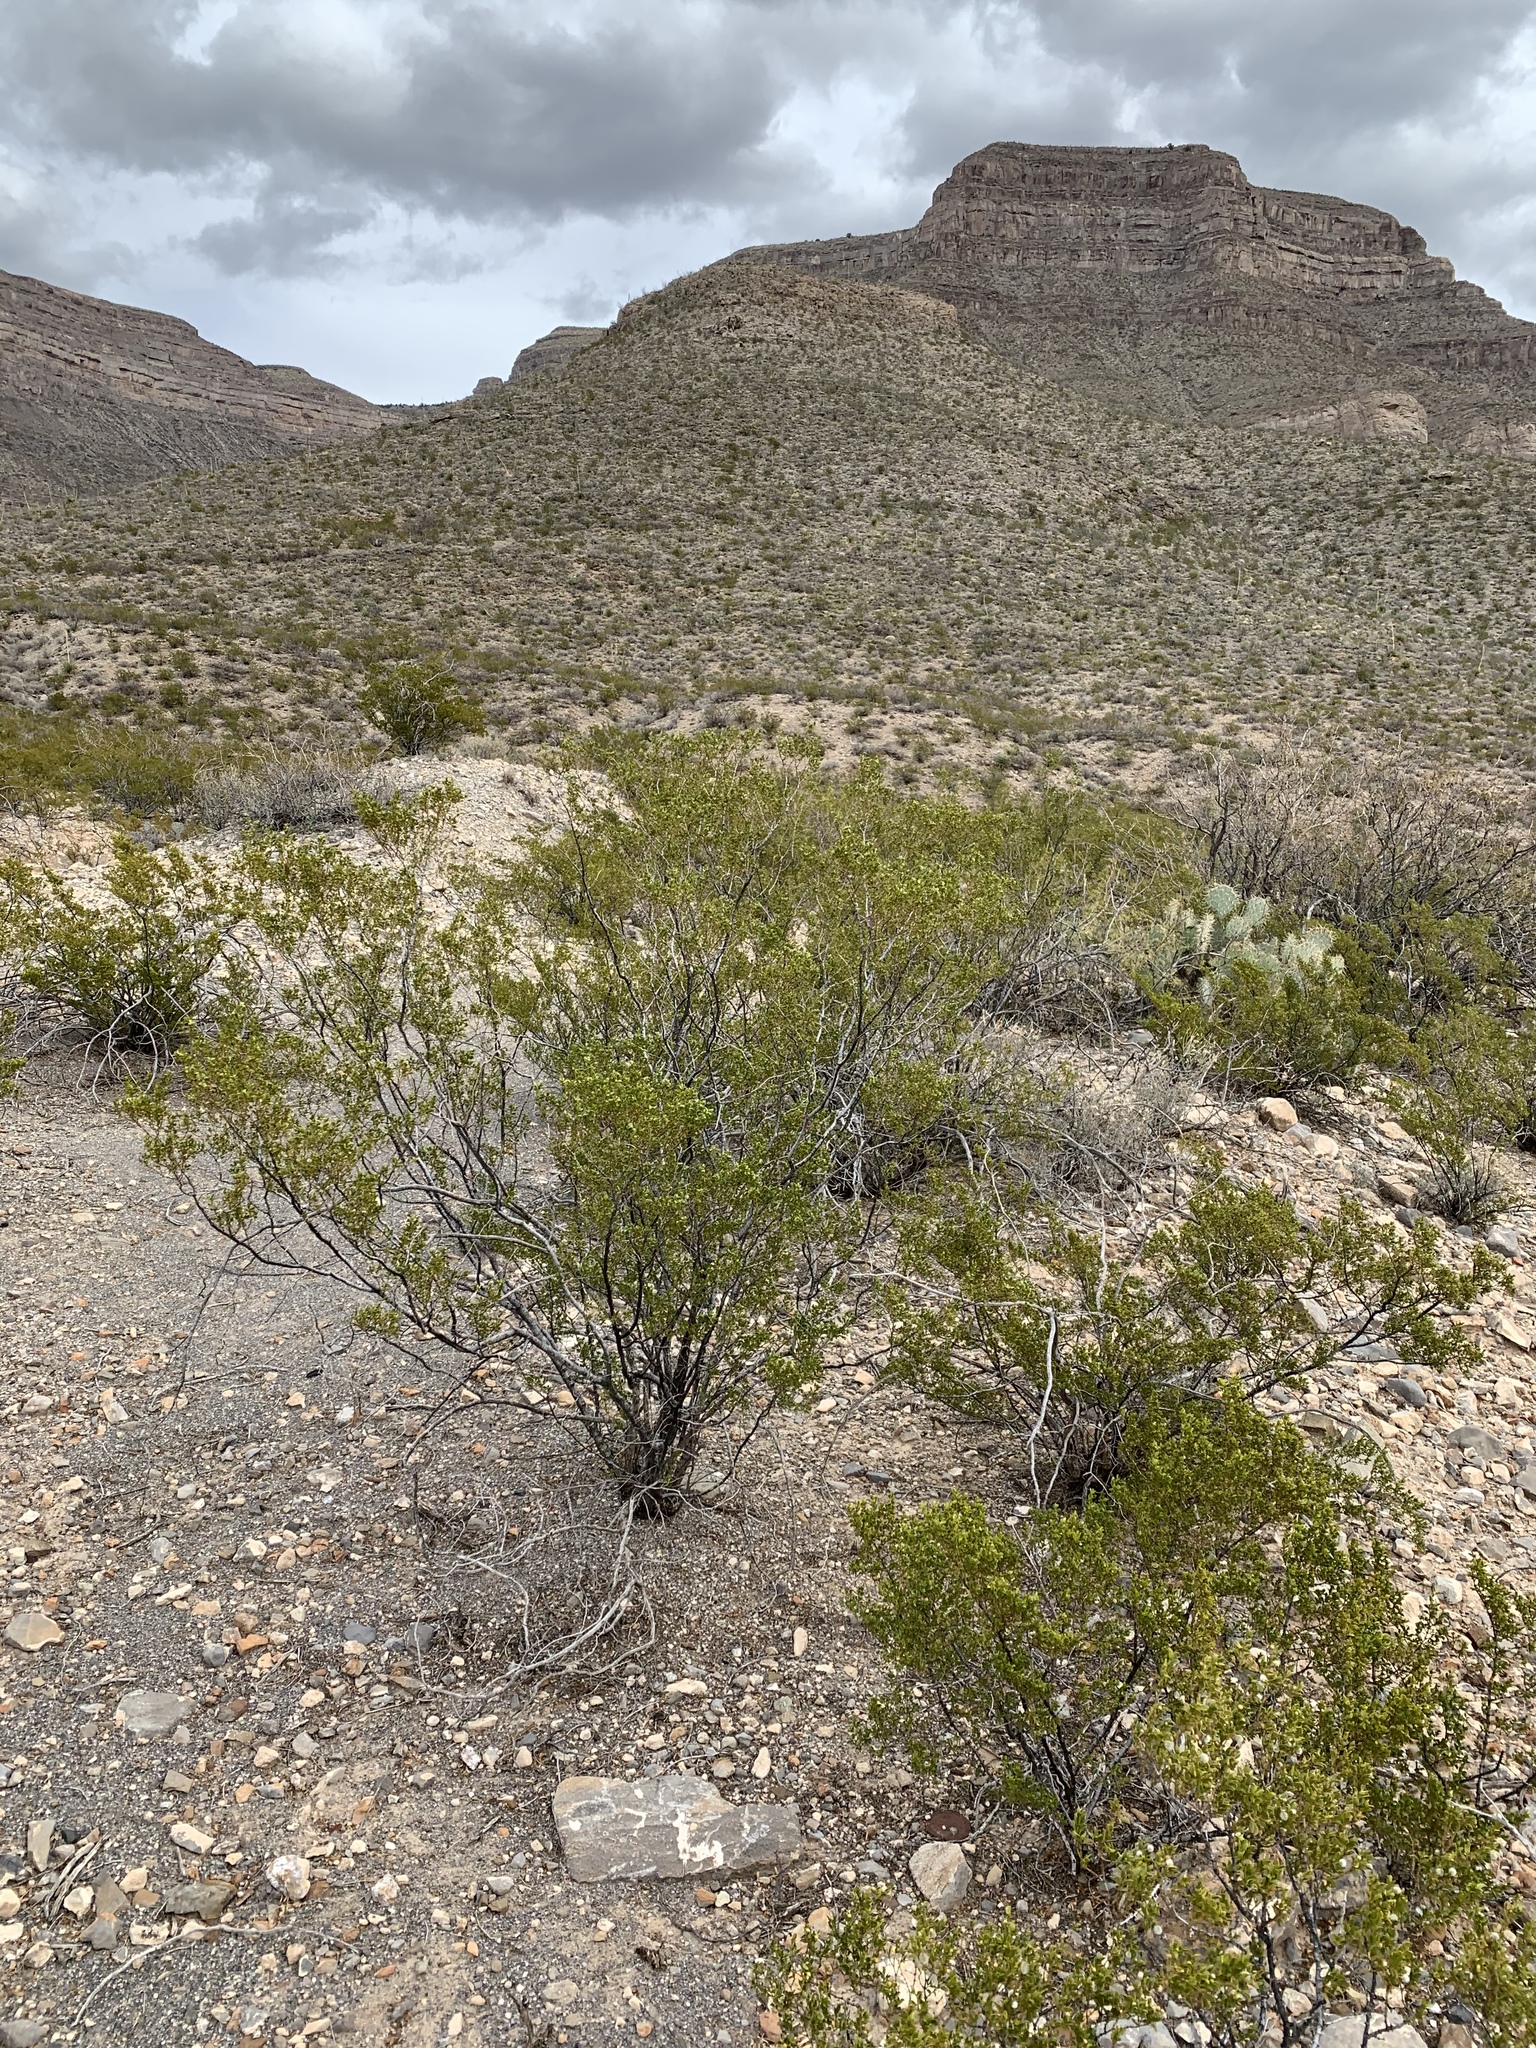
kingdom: Plantae
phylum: Tracheophyta
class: Magnoliopsida
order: Zygophyllales
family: Zygophyllaceae
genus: Larrea
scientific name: Larrea tridentata
